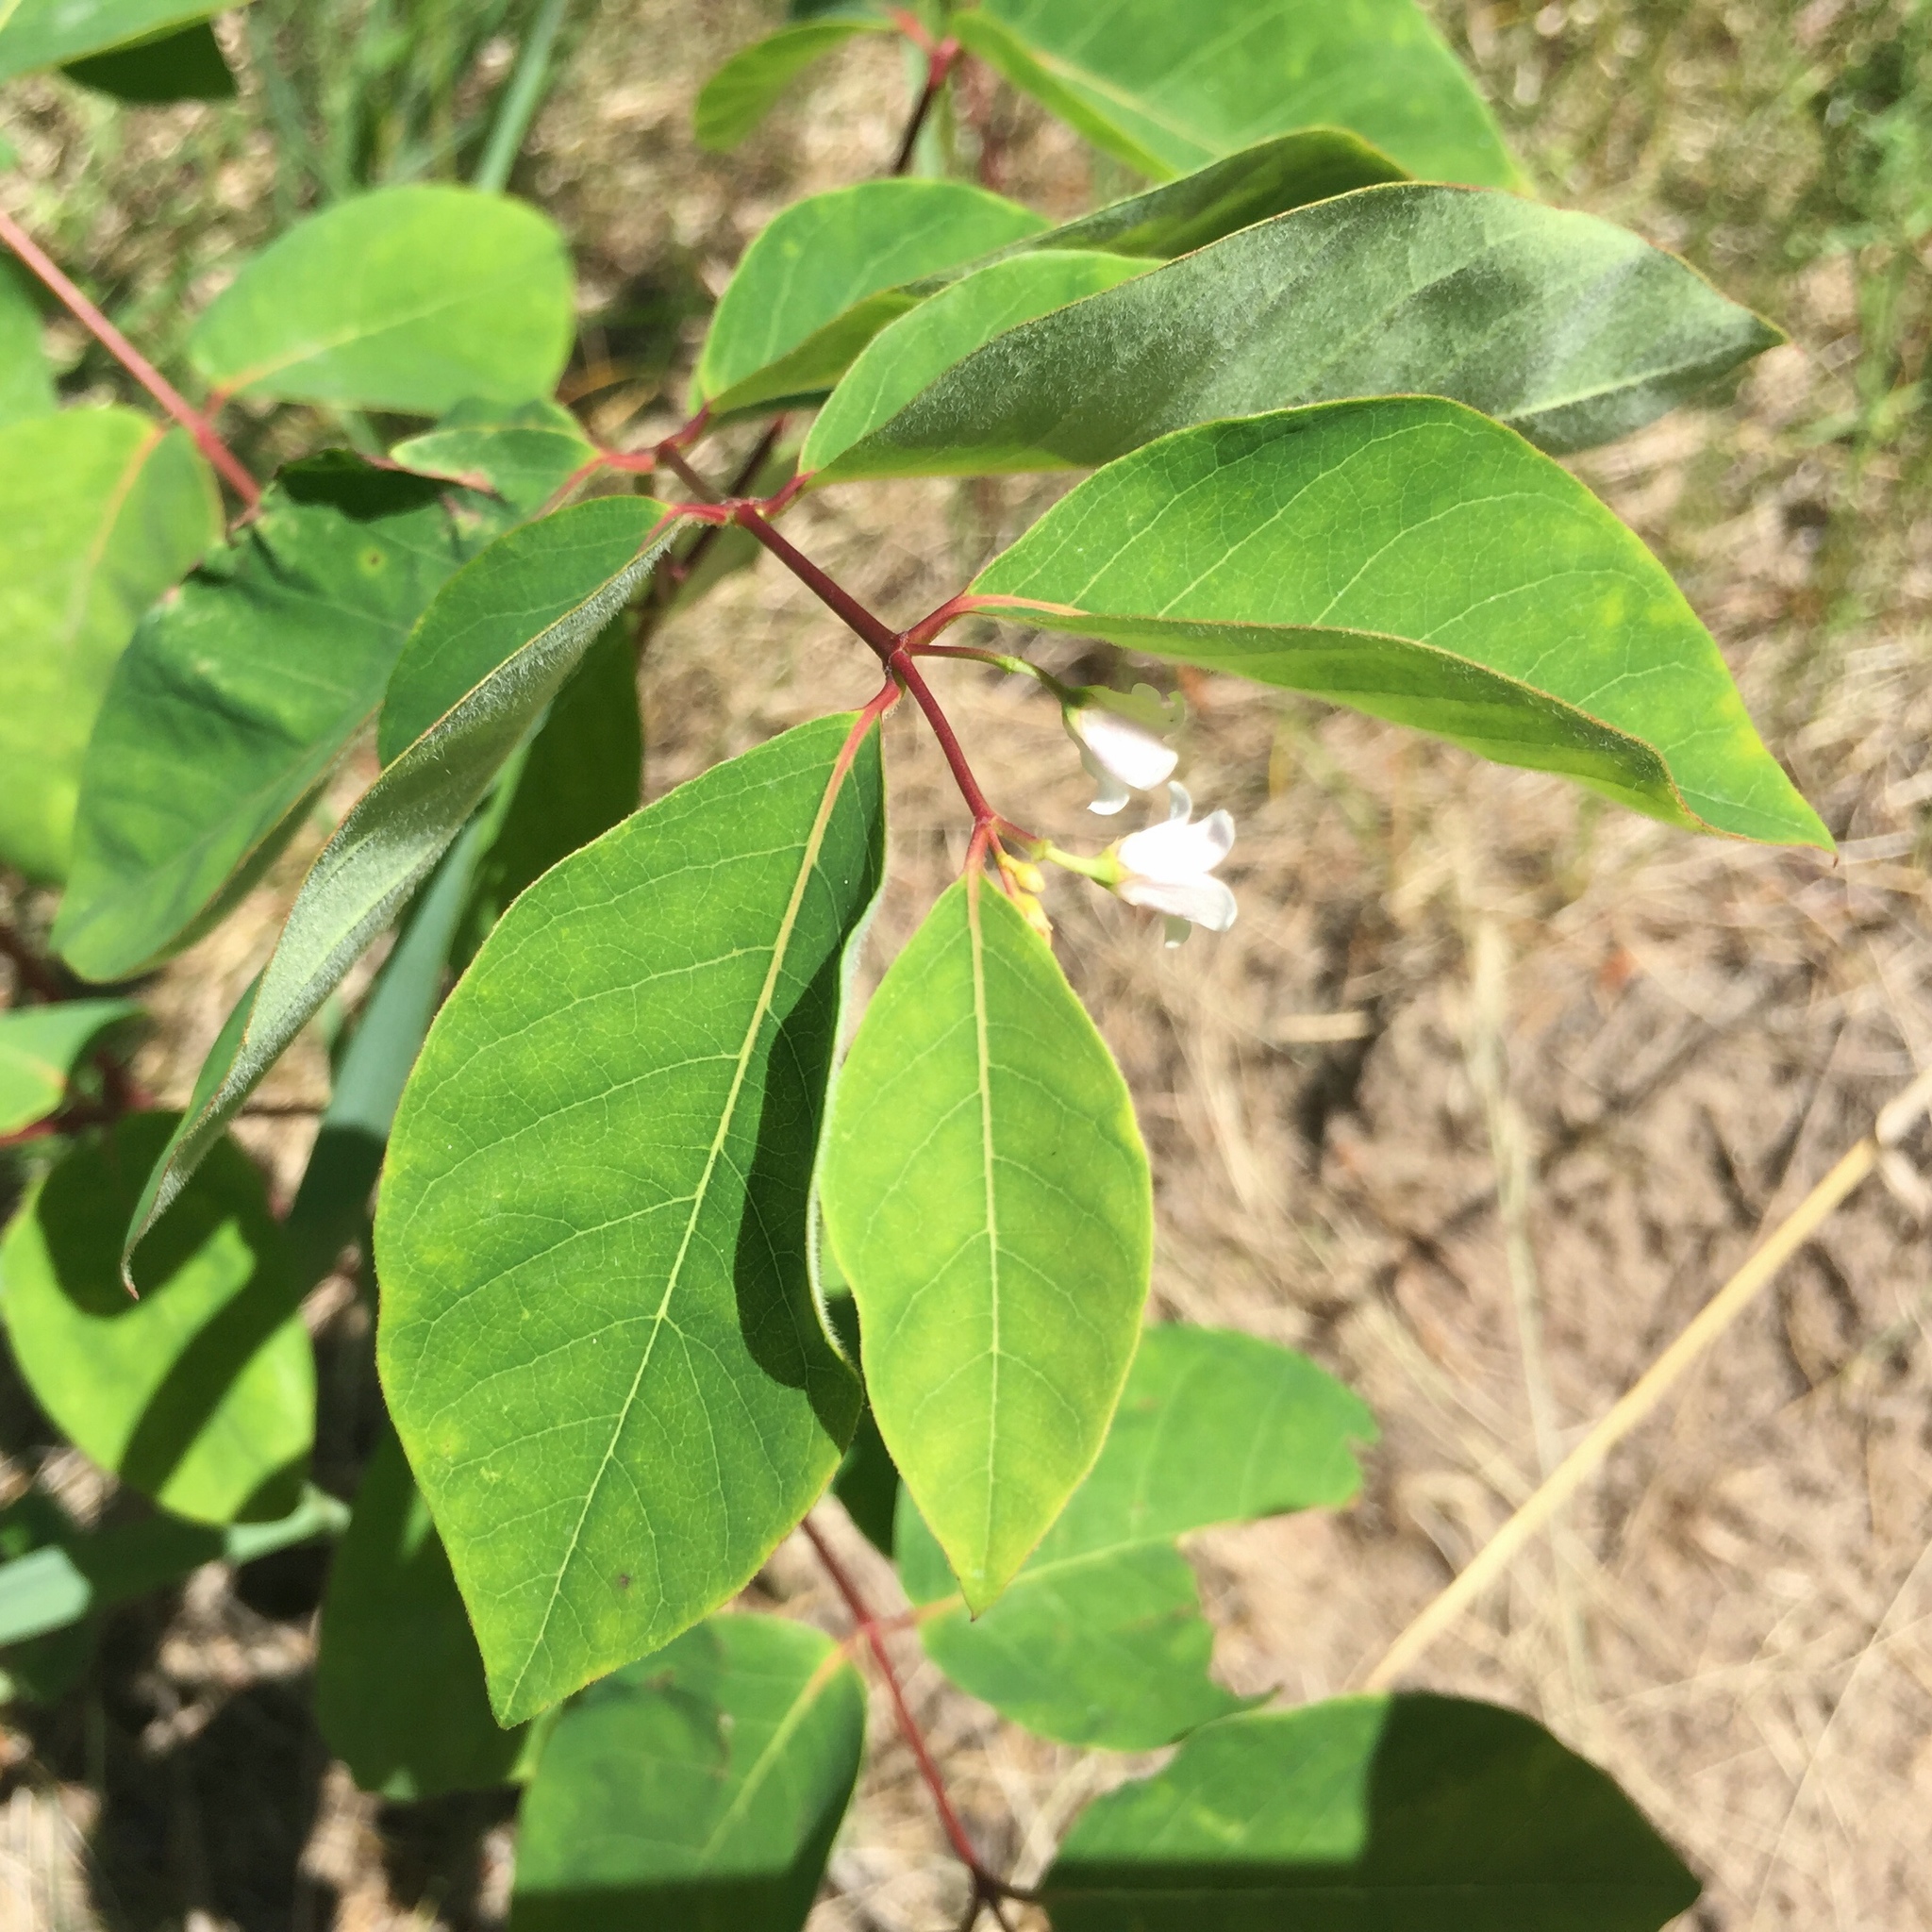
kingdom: Plantae
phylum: Tracheophyta
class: Magnoliopsida
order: Gentianales
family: Apocynaceae
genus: Apocynum
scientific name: Apocynum androsaemifolium
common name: Spreading dogbane
